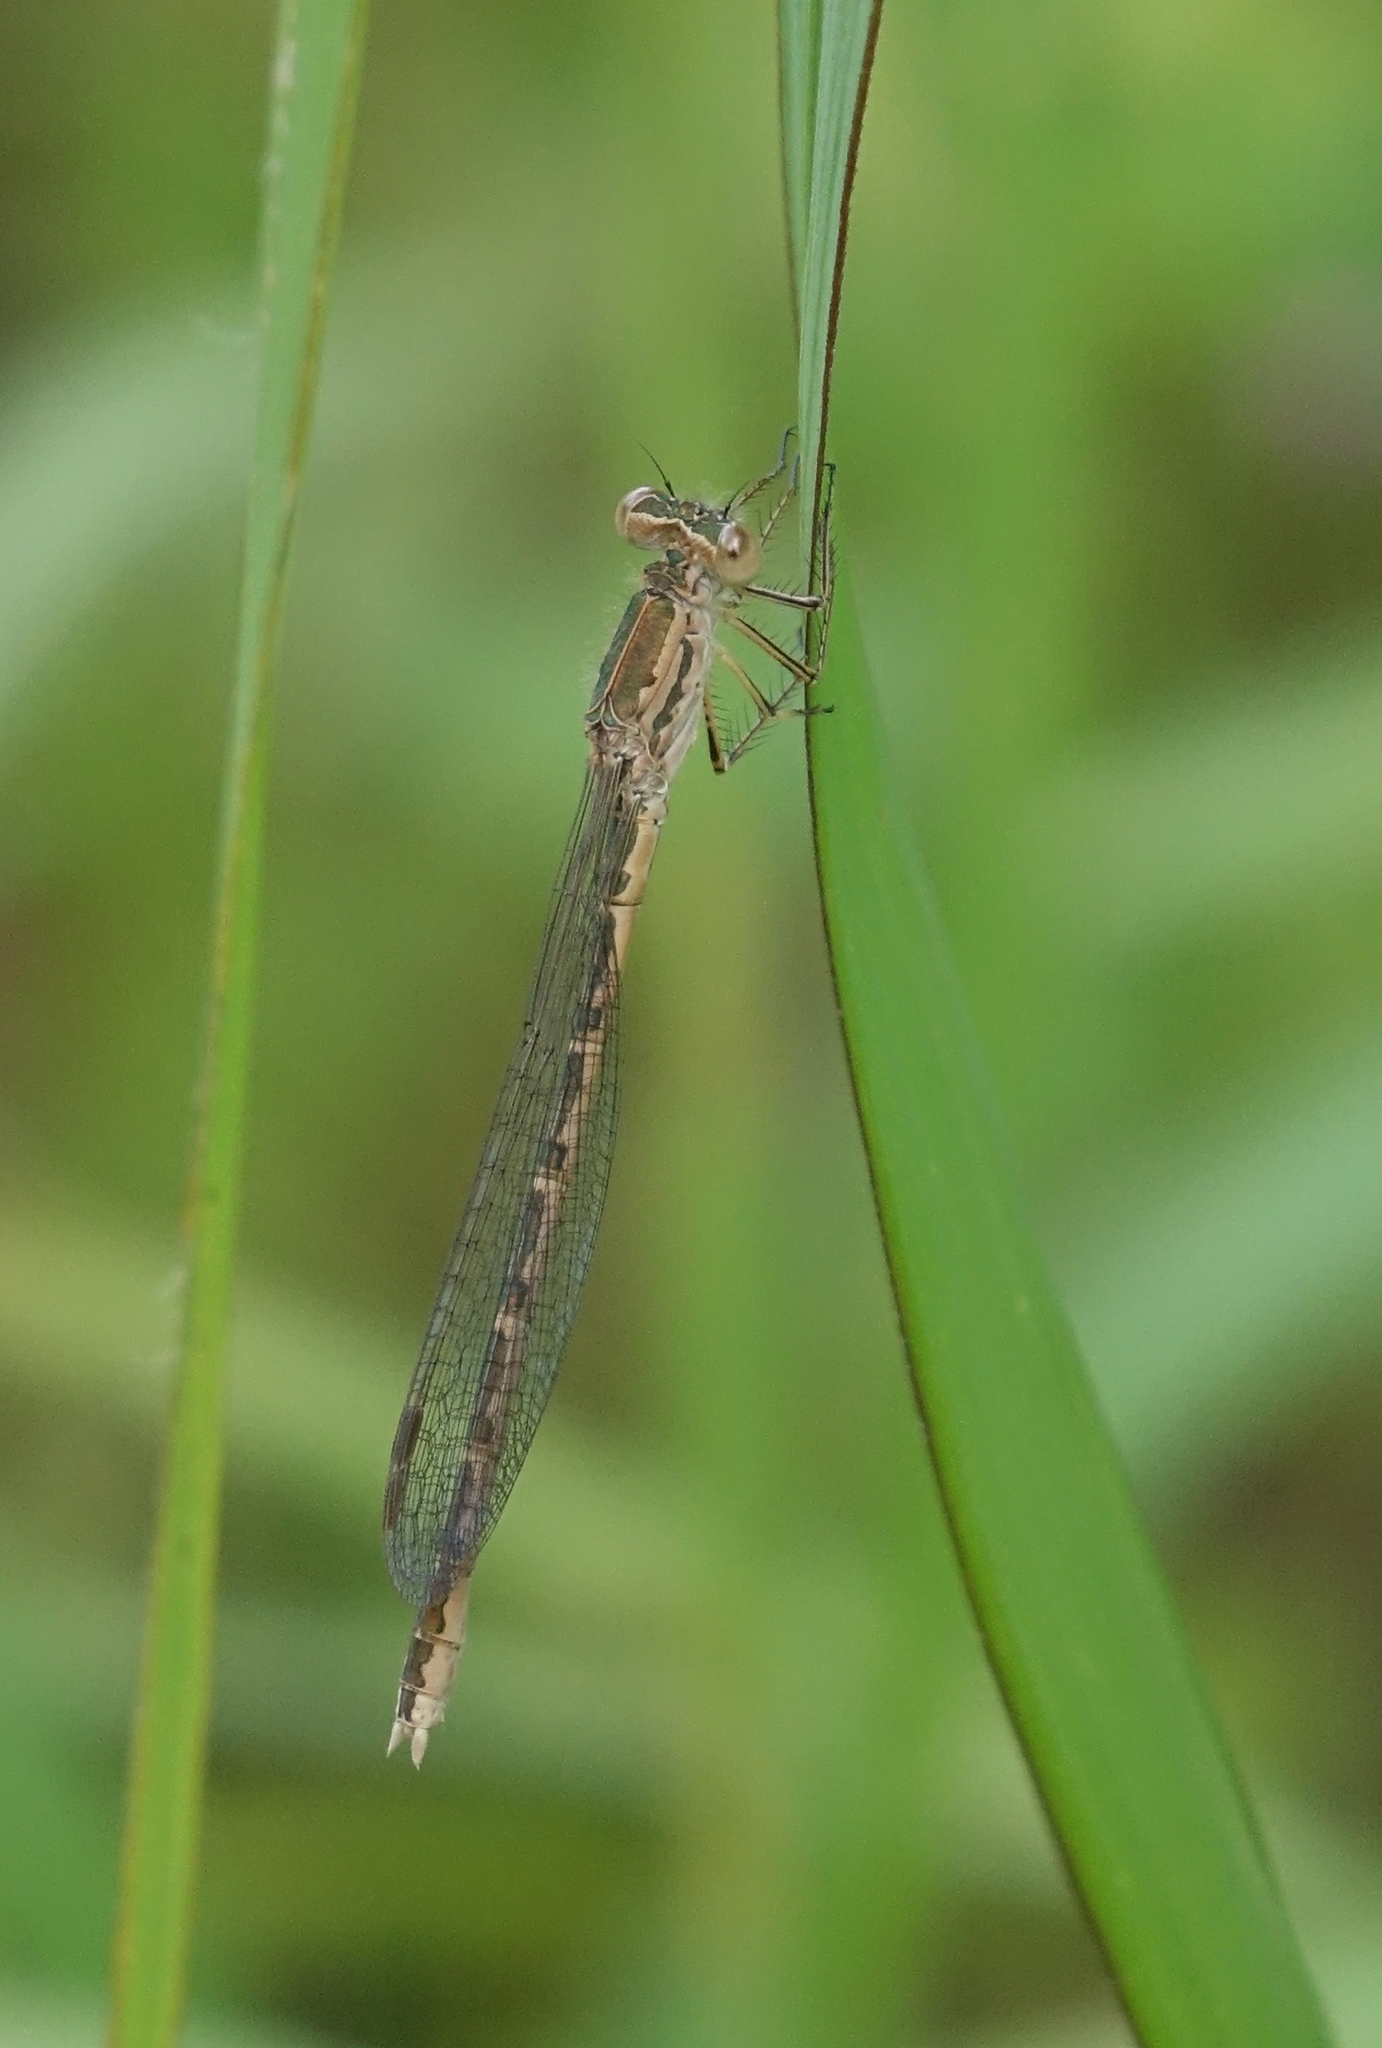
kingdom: Animalia
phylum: Arthropoda
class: Insecta
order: Odonata
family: Lestidae
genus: Sympecma
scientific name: Sympecma paedisca
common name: Siberian winter damsel
